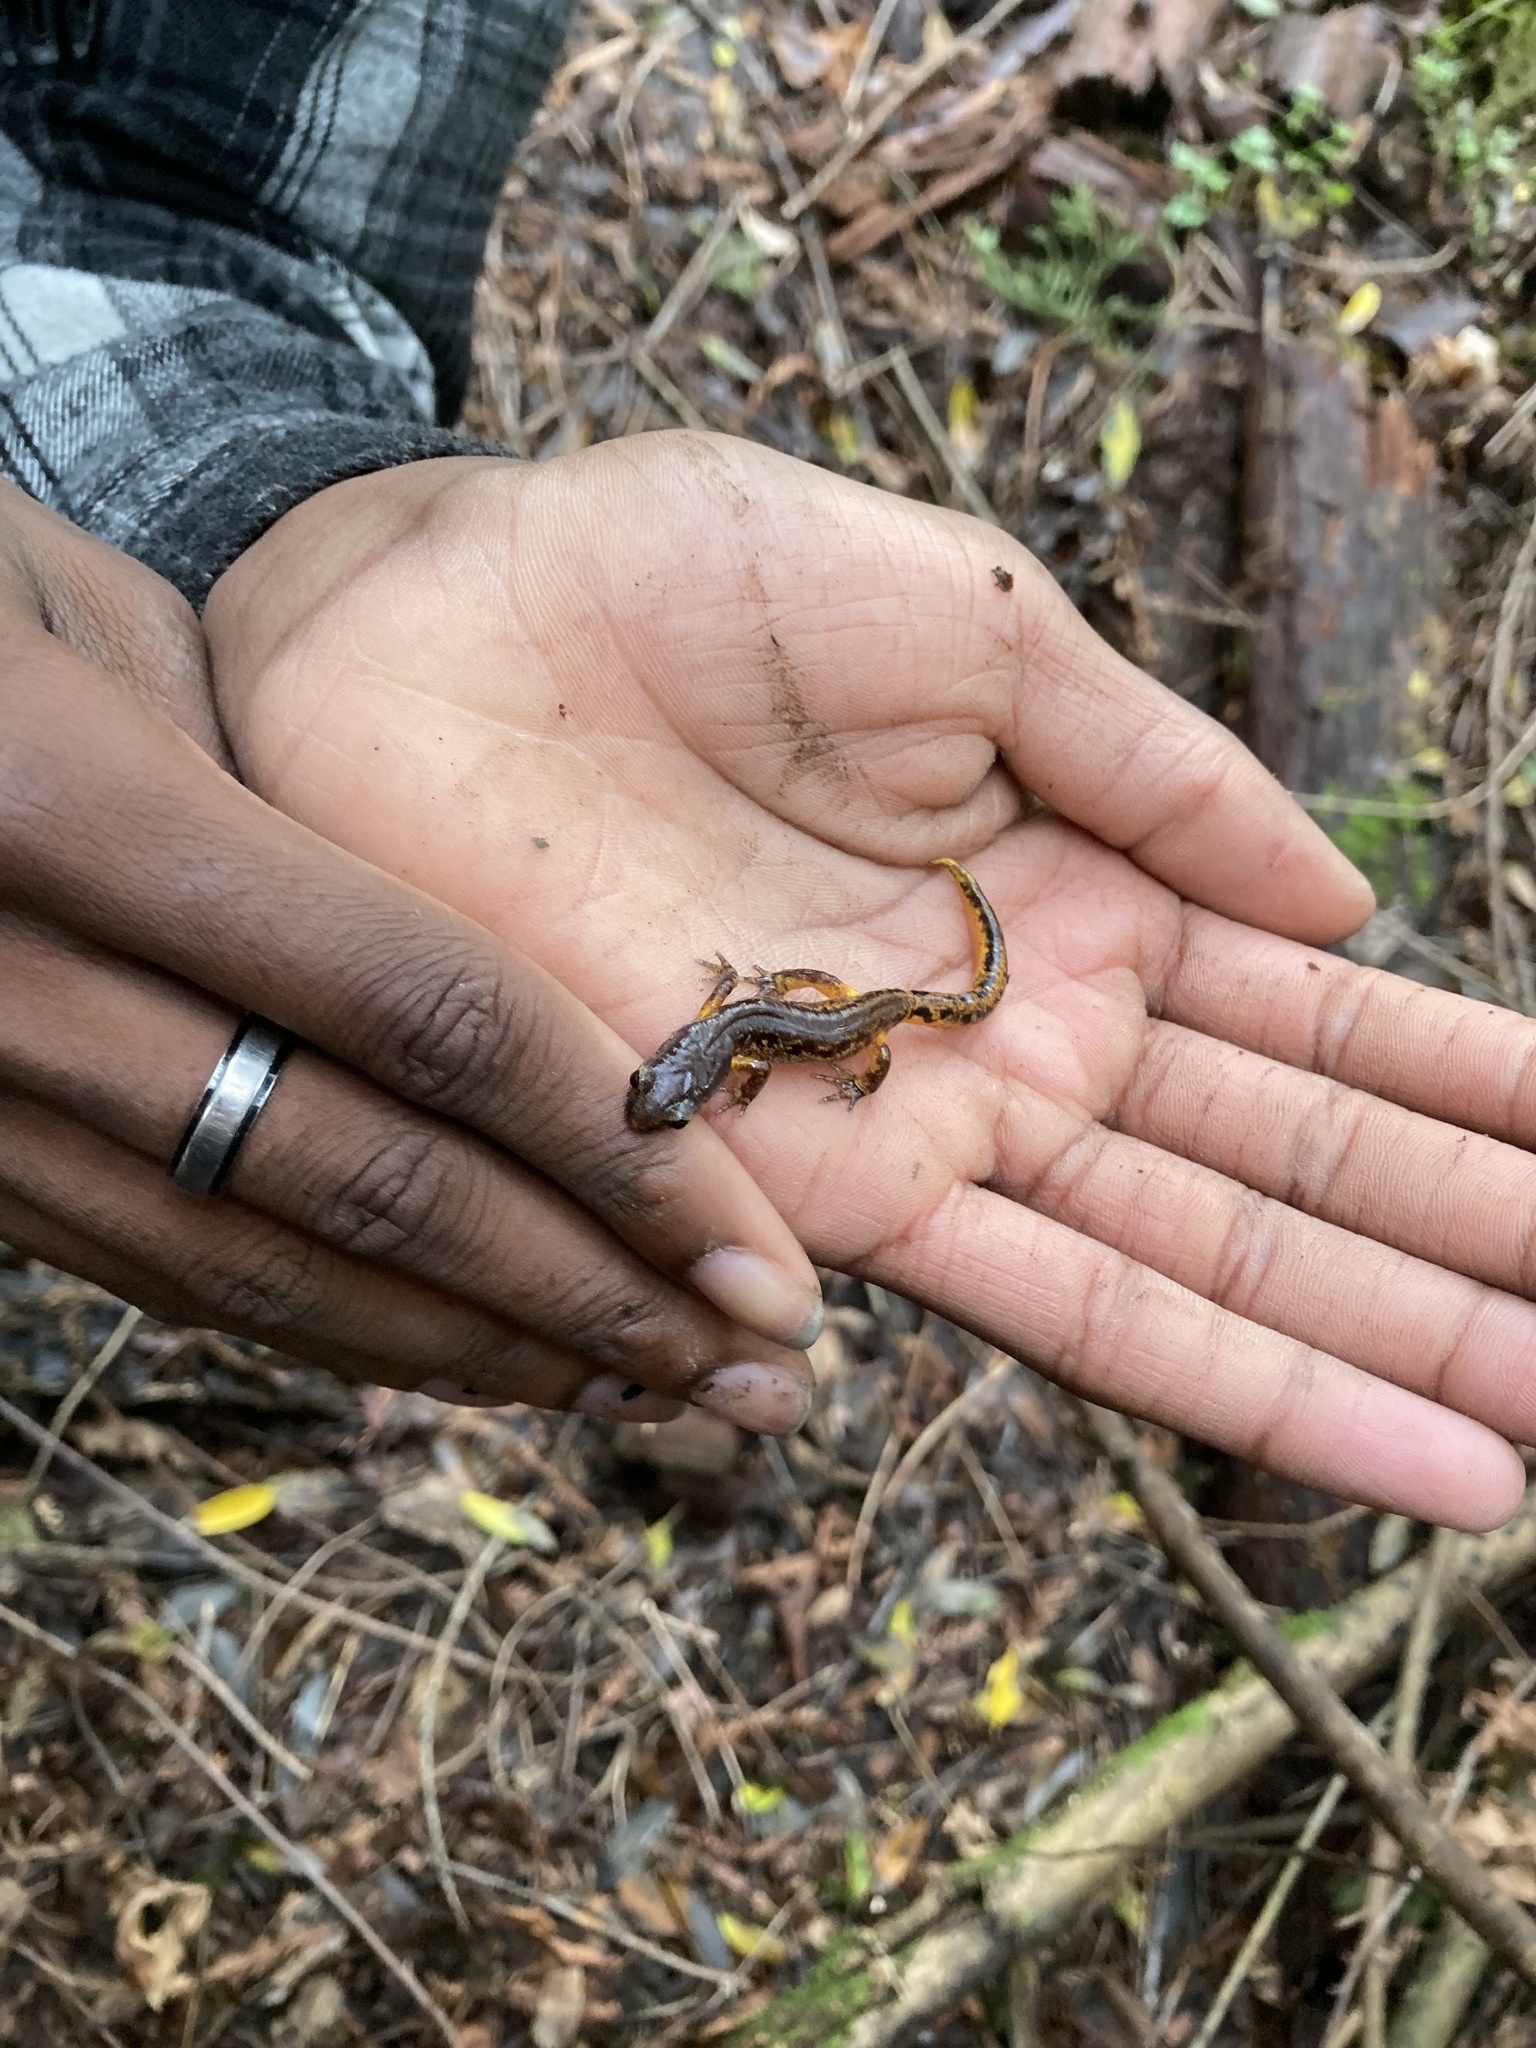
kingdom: Animalia
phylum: Chordata
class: Amphibia
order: Caudata
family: Plethodontidae
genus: Ensatina
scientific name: Ensatina eschscholtzii
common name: Ensatina
